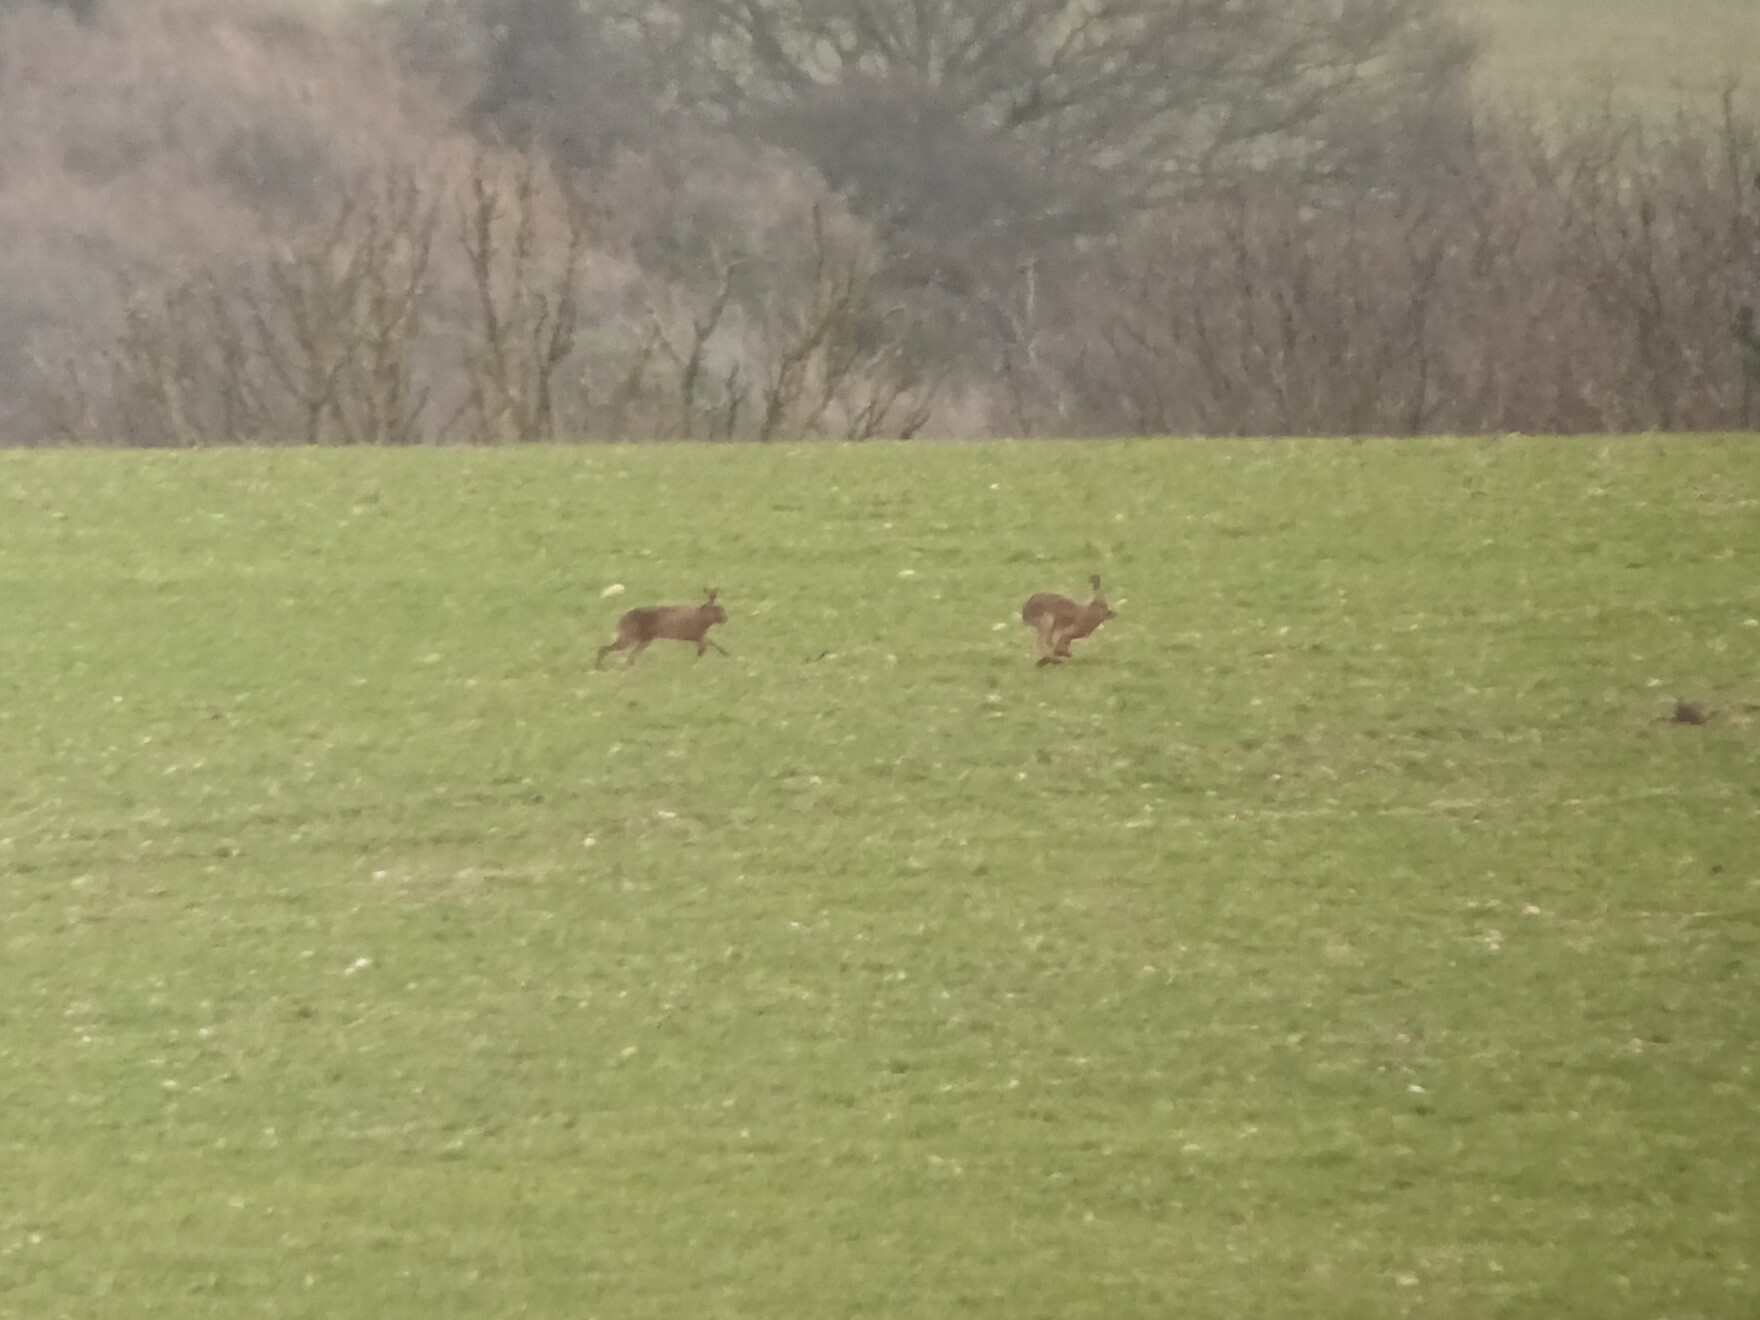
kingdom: Animalia
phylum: Chordata
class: Mammalia
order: Lagomorpha
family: Leporidae
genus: Lepus
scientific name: Lepus europaeus
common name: European hare
